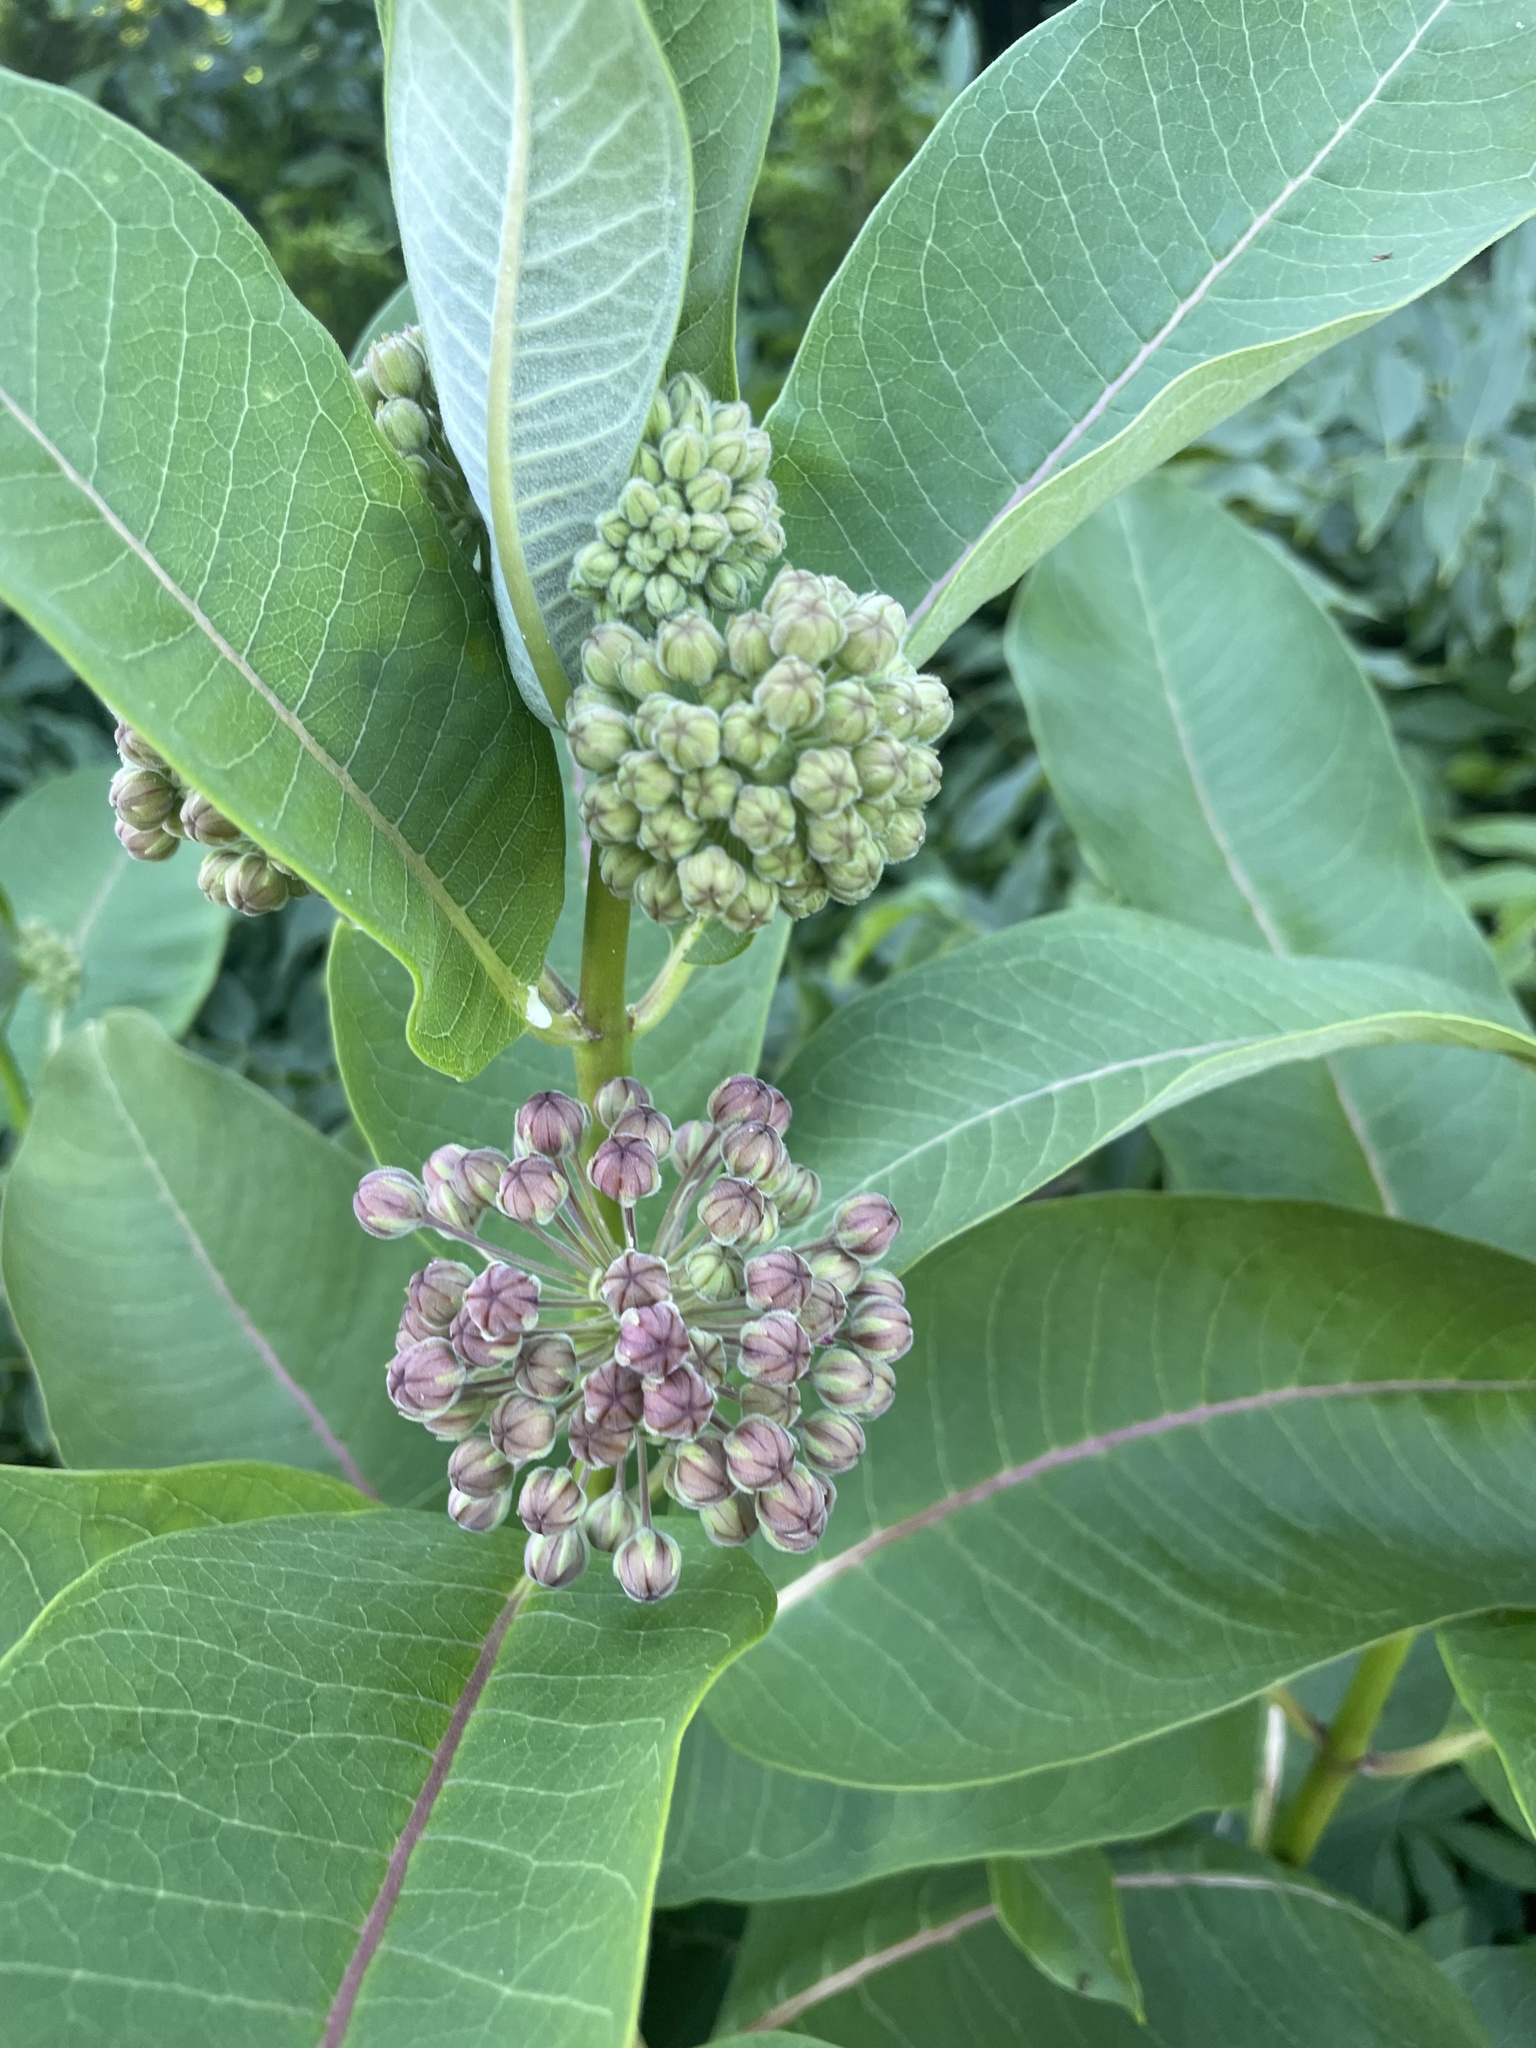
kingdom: Plantae
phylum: Tracheophyta
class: Magnoliopsida
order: Gentianales
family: Apocynaceae
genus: Asclepias
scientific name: Asclepias syriaca
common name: Common milkweed
